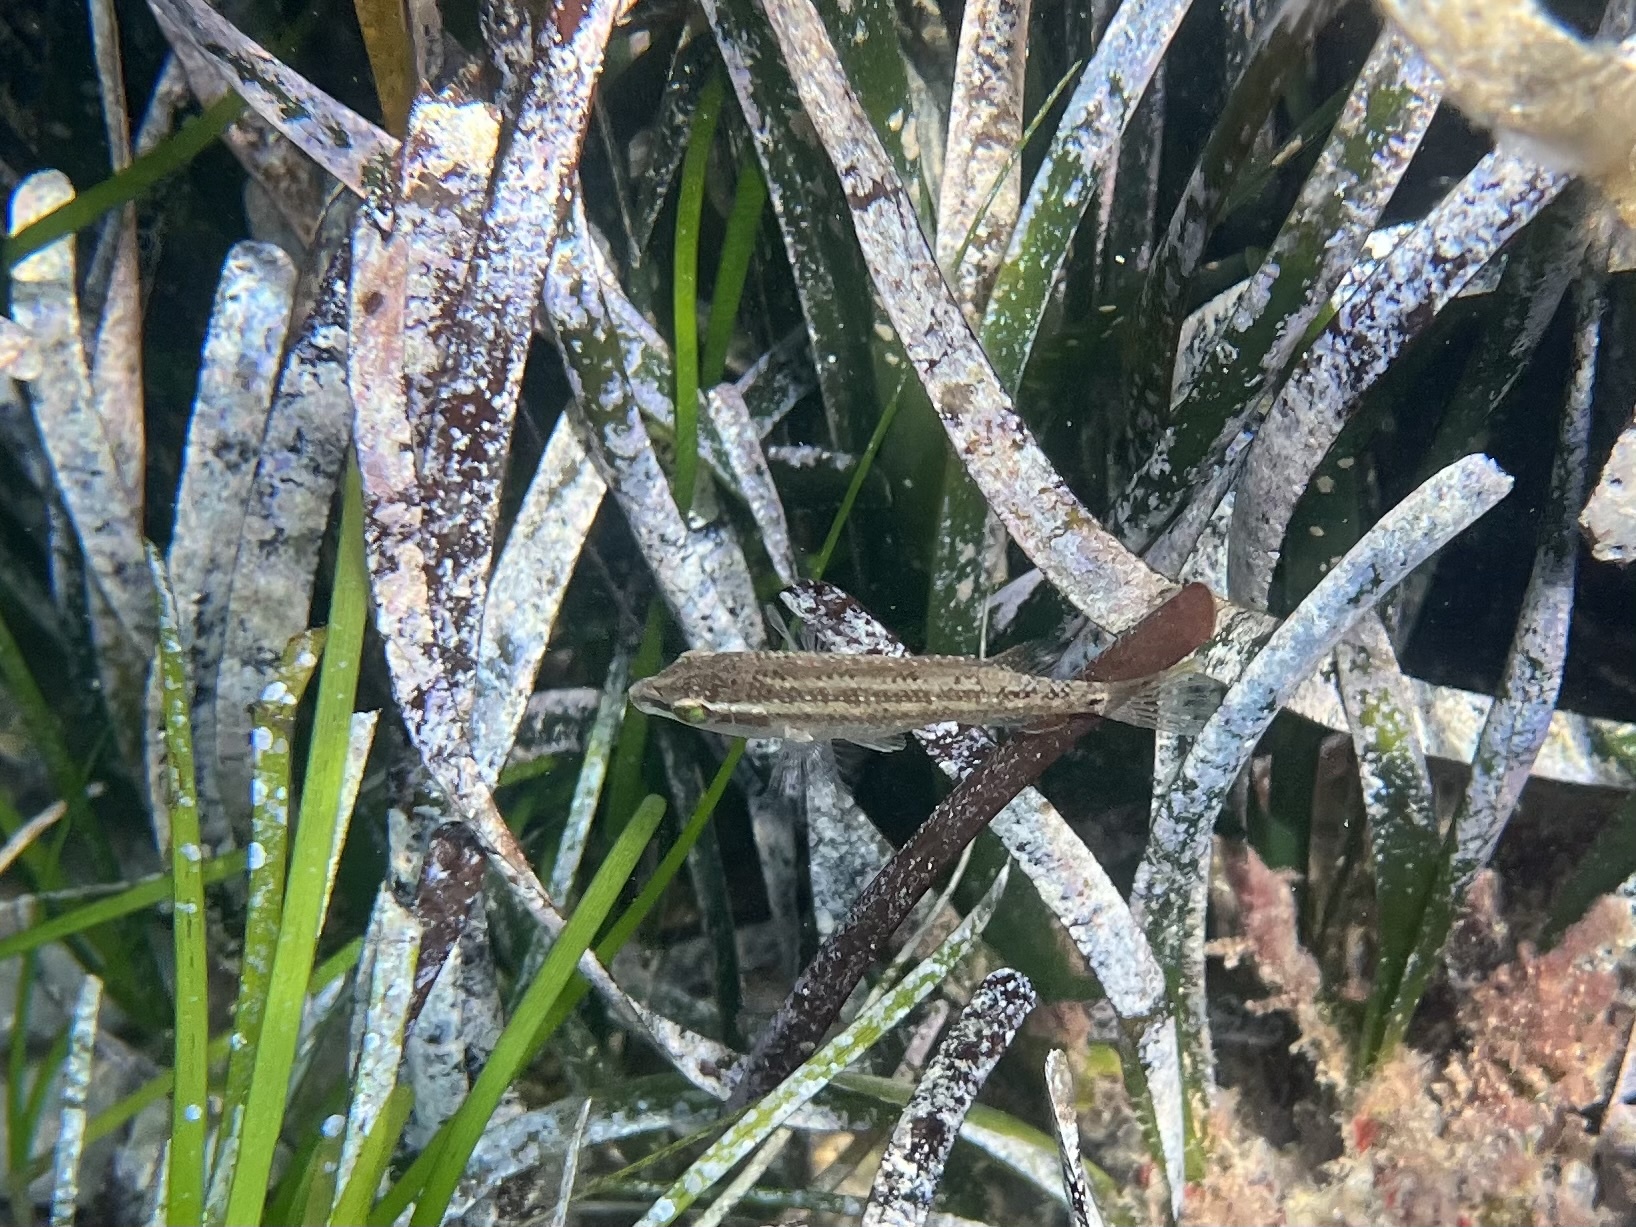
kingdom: Animalia
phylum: Chordata
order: Perciformes
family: Labridae
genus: Symphodus
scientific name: Symphodus tinca
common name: Peacock wrasse
